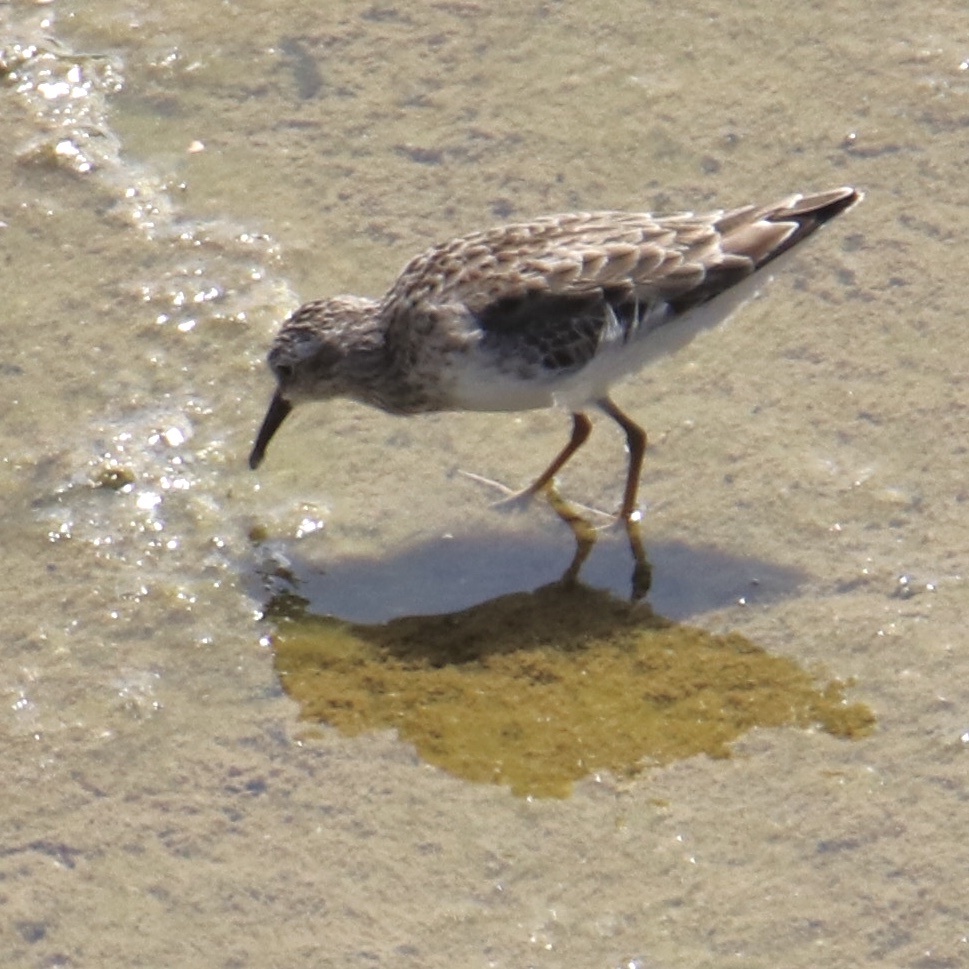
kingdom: Animalia
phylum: Chordata
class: Aves
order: Charadriiformes
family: Scolopacidae
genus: Calidris
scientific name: Calidris minutilla
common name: Least sandpiper
